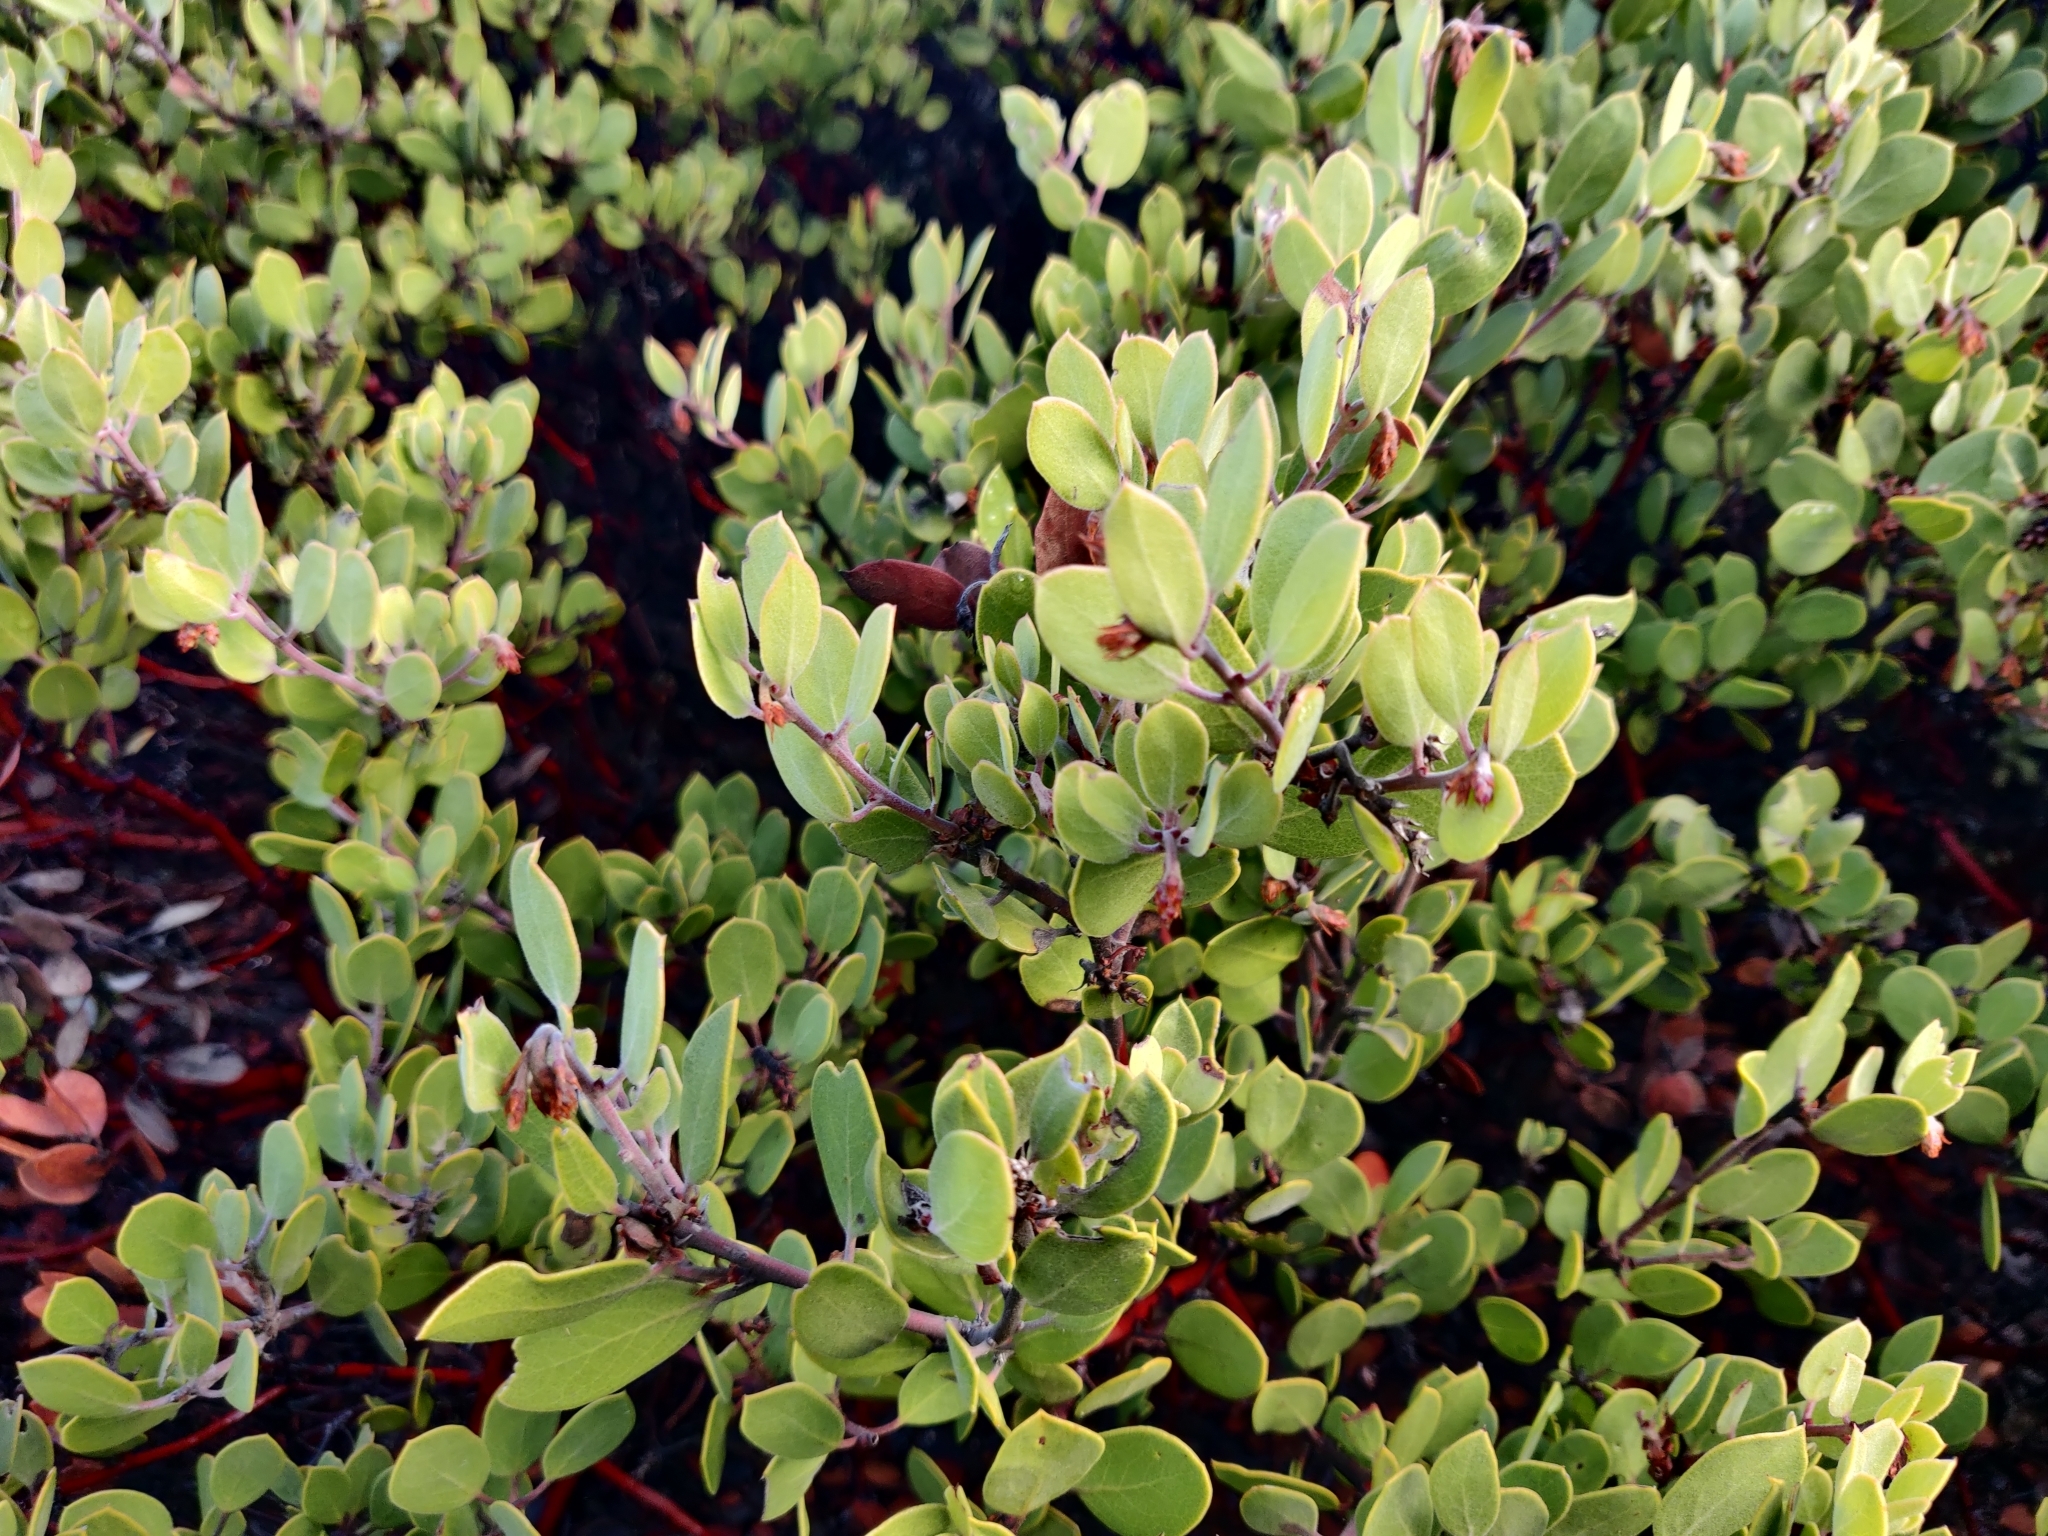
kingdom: Plantae
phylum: Tracheophyta
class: Magnoliopsida
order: Ericales
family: Ericaceae
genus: Arctostaphylos
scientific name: Arctostaphylos montana
